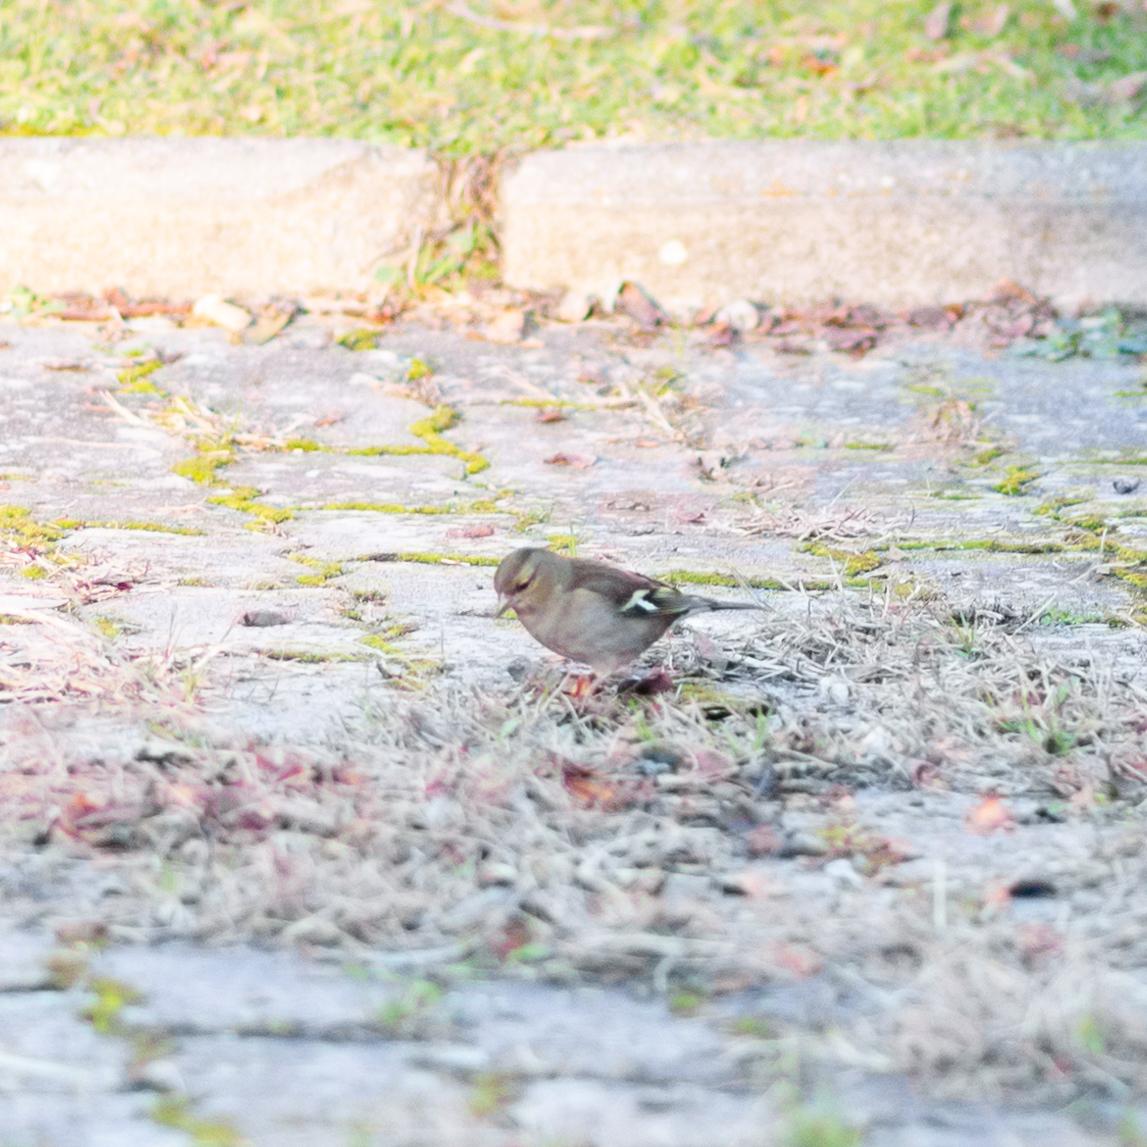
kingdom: Animalia
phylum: Chordata
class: Aves
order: Passeriformes
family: Fringillidae
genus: Fringilla
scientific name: Fringilla coelebs
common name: Common chaffinch
